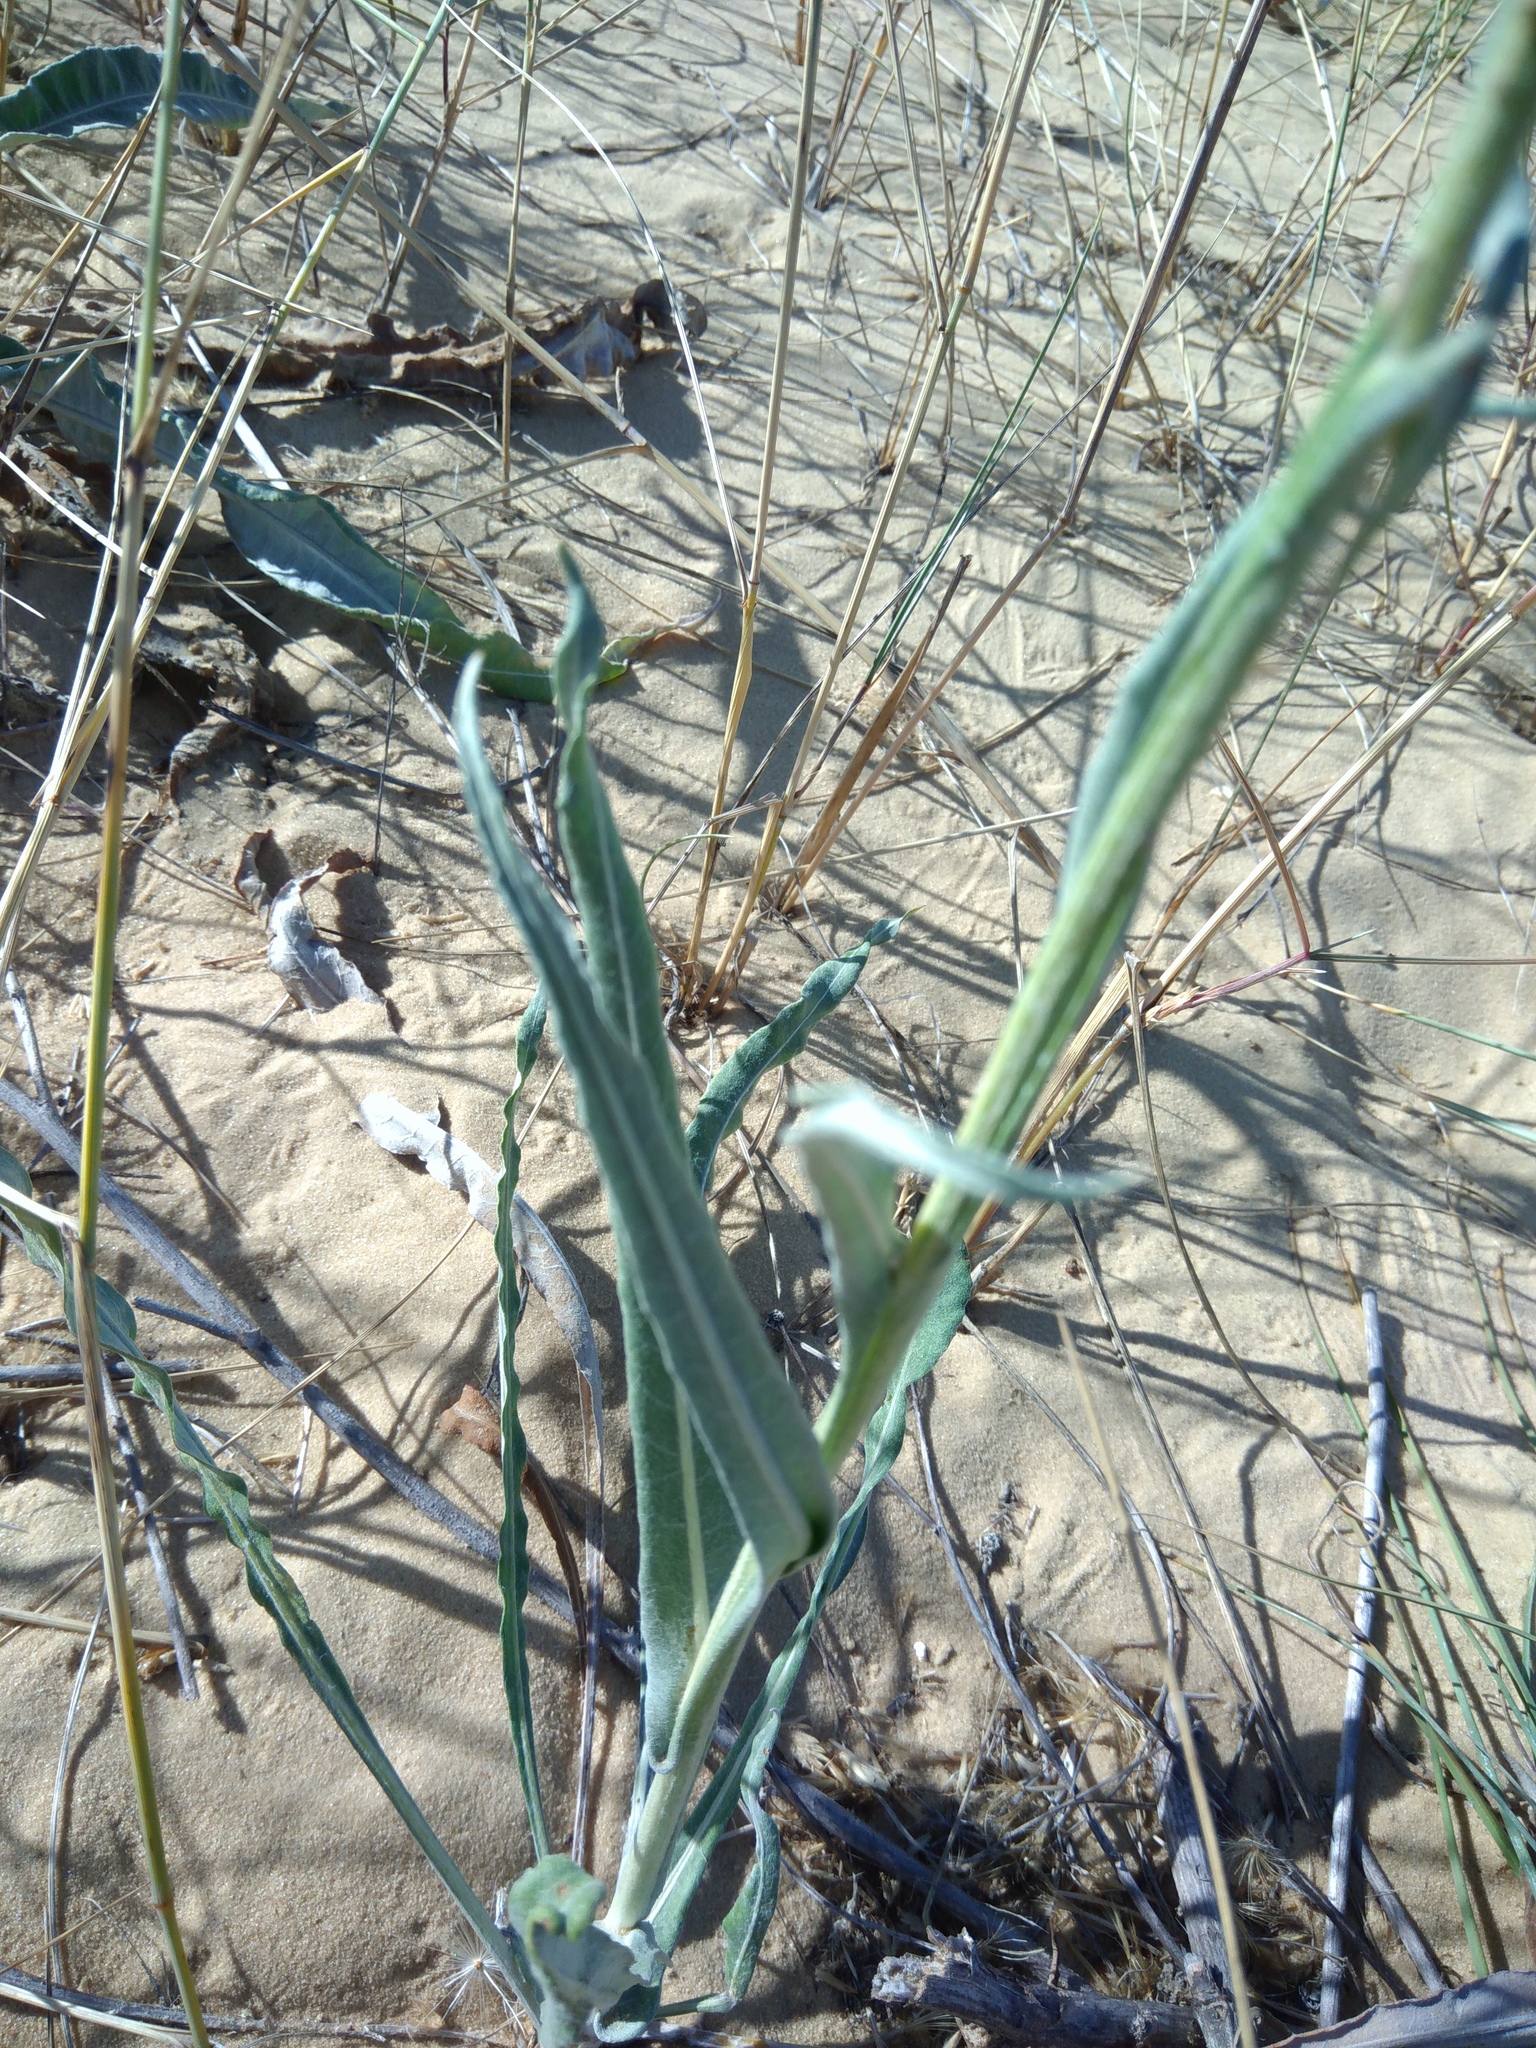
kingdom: Plantae
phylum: Tracheophyta
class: Magnoliopsida
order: Asterales
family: Asteraceae
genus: Jurinea
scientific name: Jurinea longifolia
